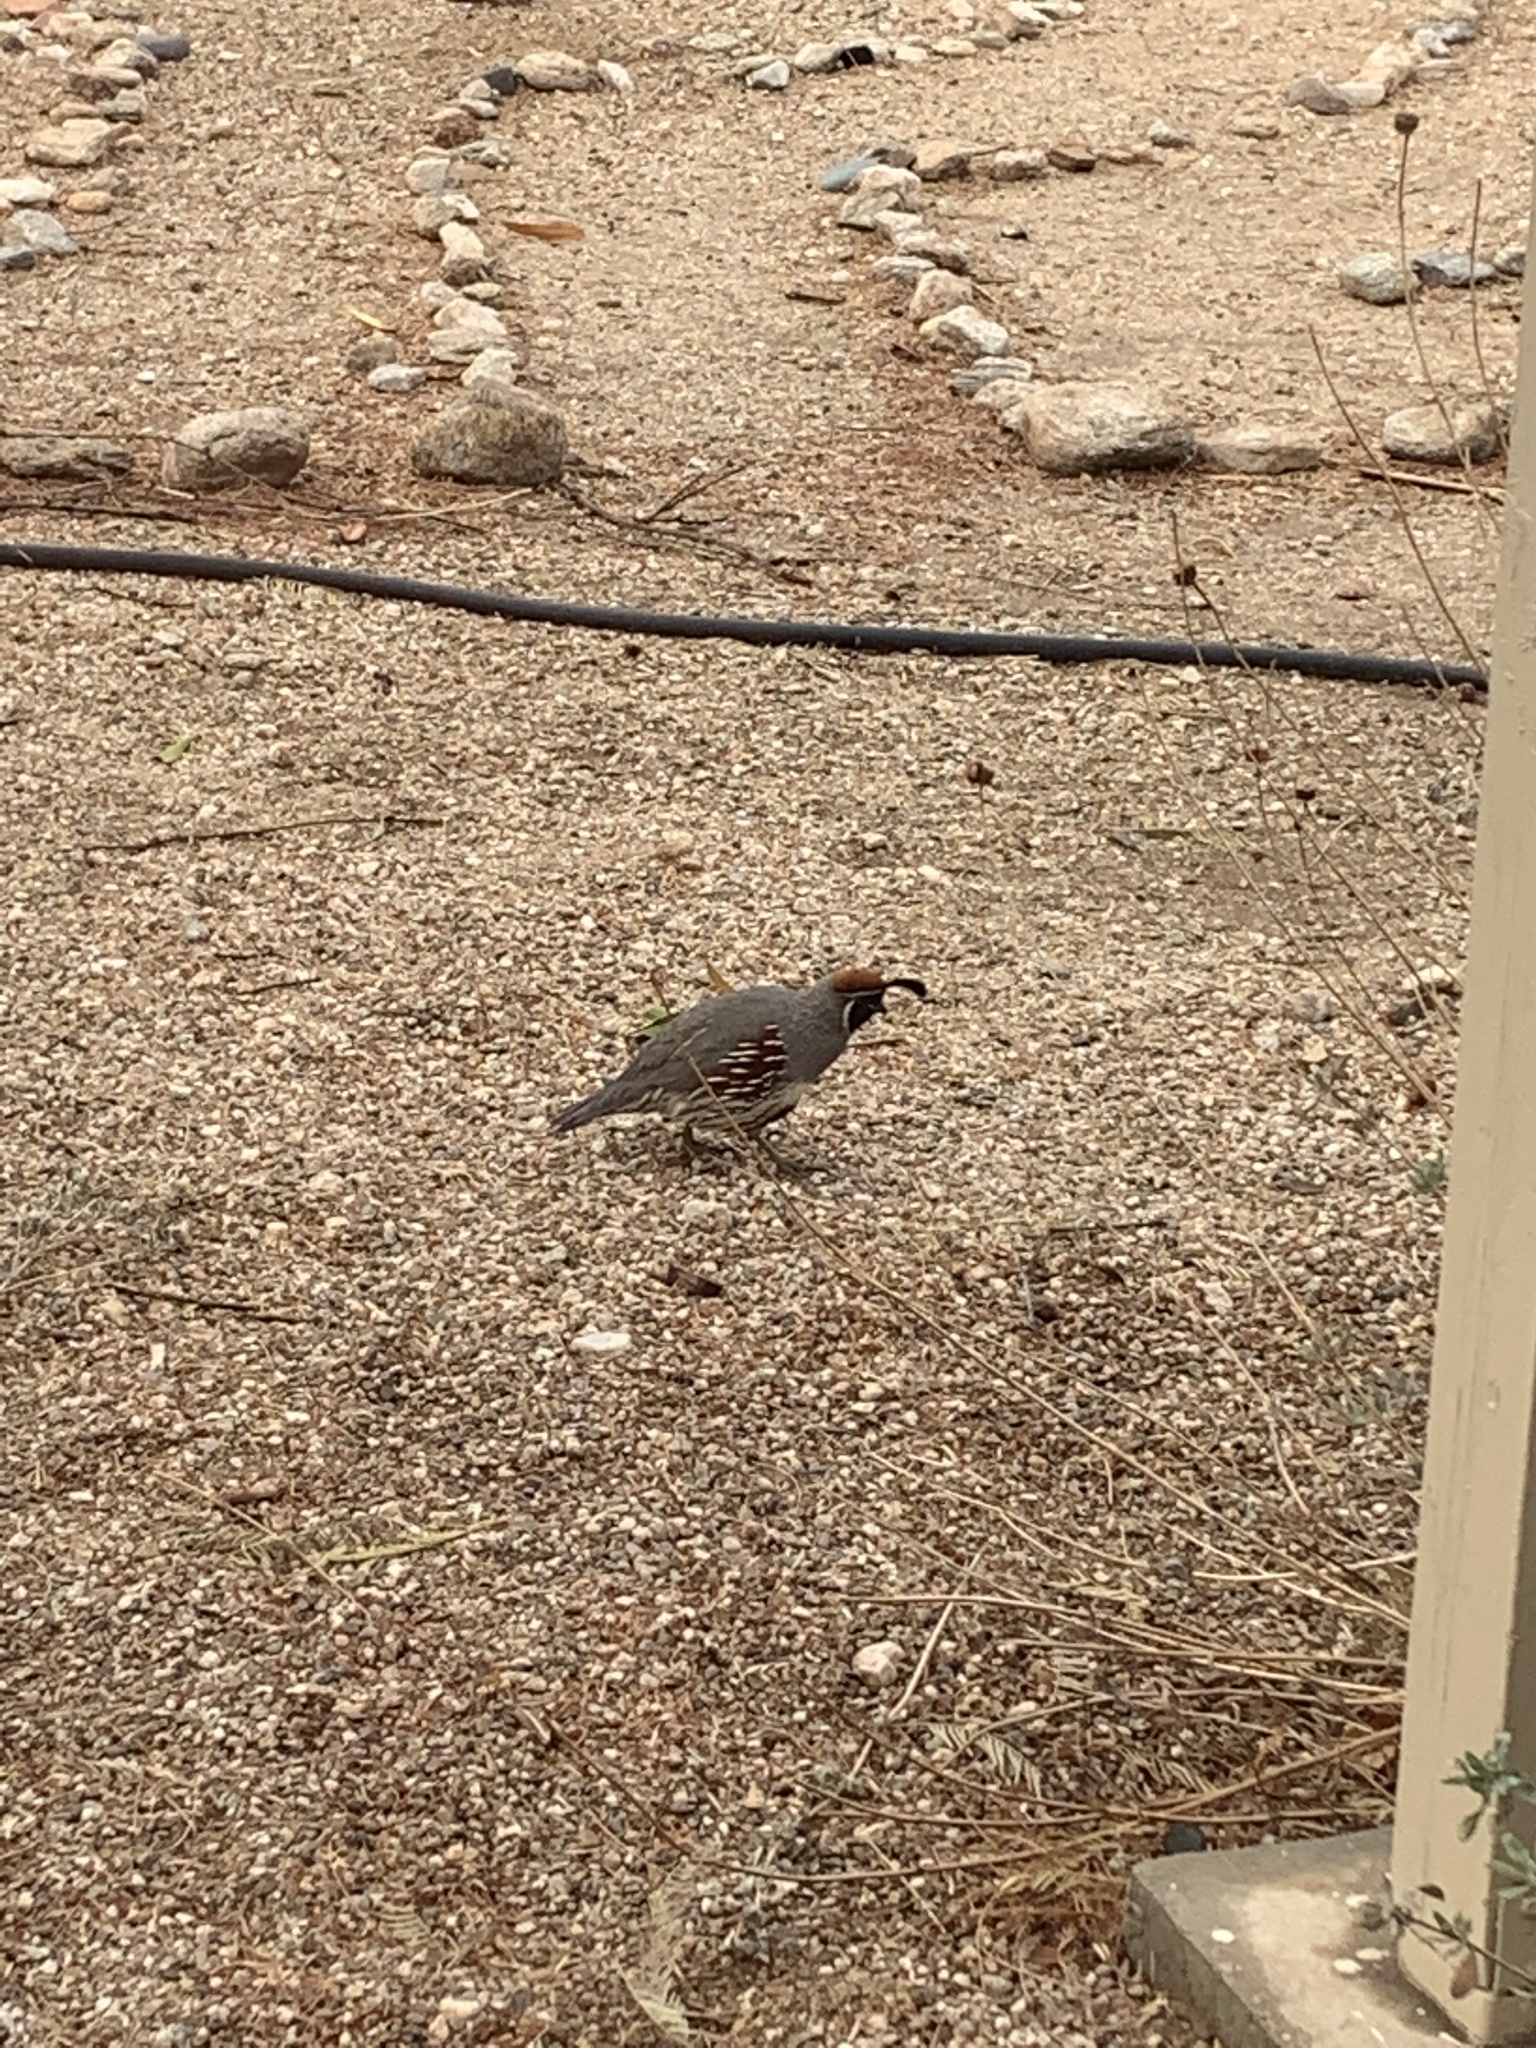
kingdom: Animalia
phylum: Chordata
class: Aves
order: Galliformes
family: Odontophoridae
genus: Callipepla
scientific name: Callipepla gambelii
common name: Gambel's quail
